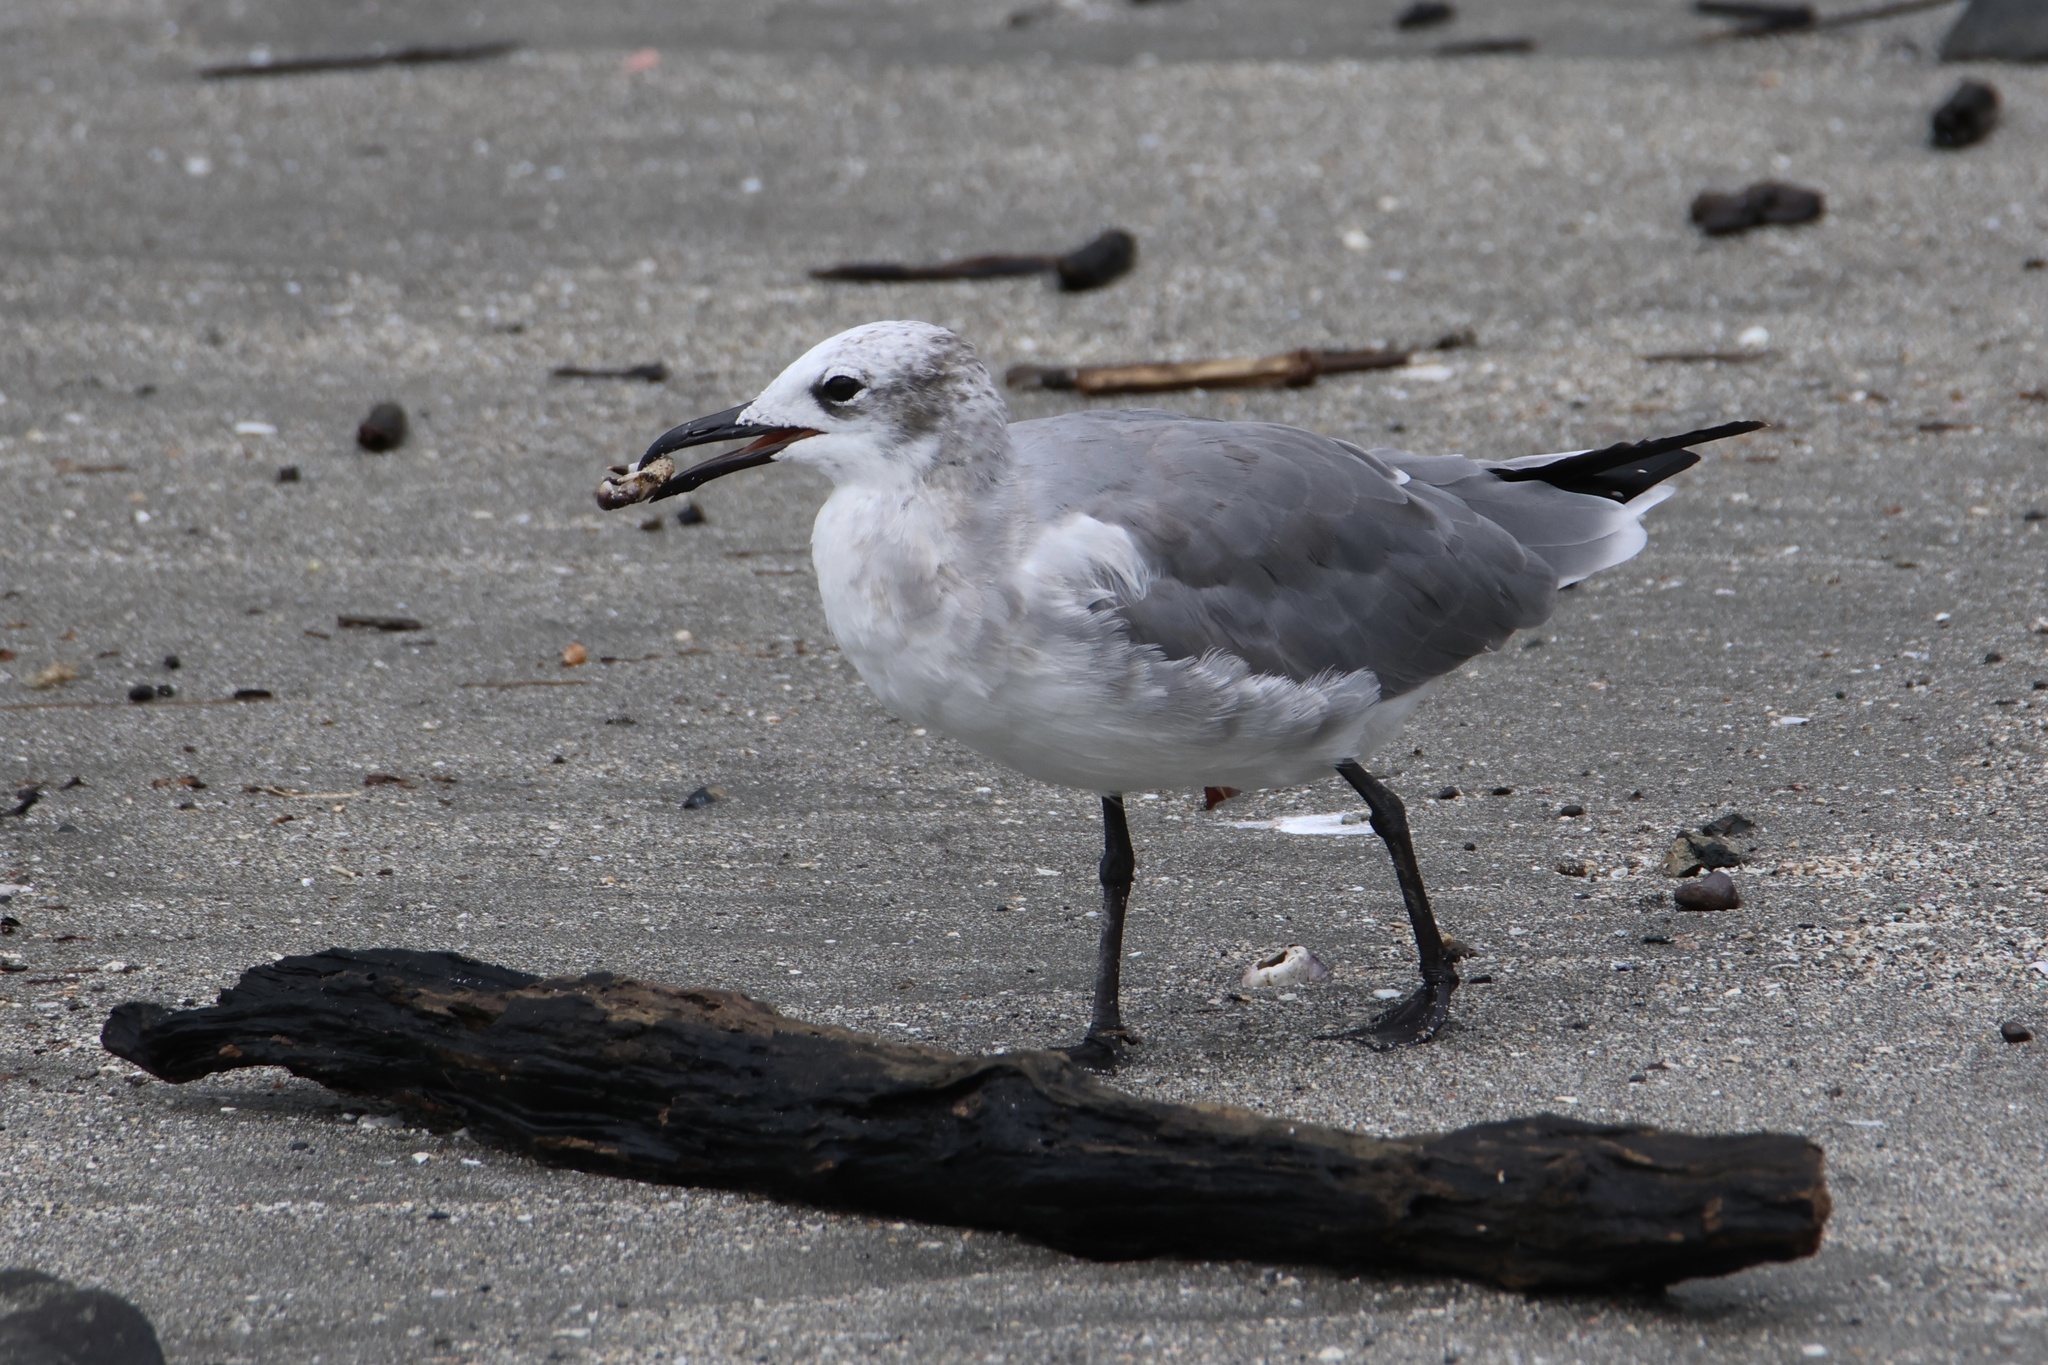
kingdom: Animalia
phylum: Chordata
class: Aves
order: Charadriiformes
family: Laridae
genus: Leucophaeus
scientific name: Leucophaeus atricilla
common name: Laughing gull
